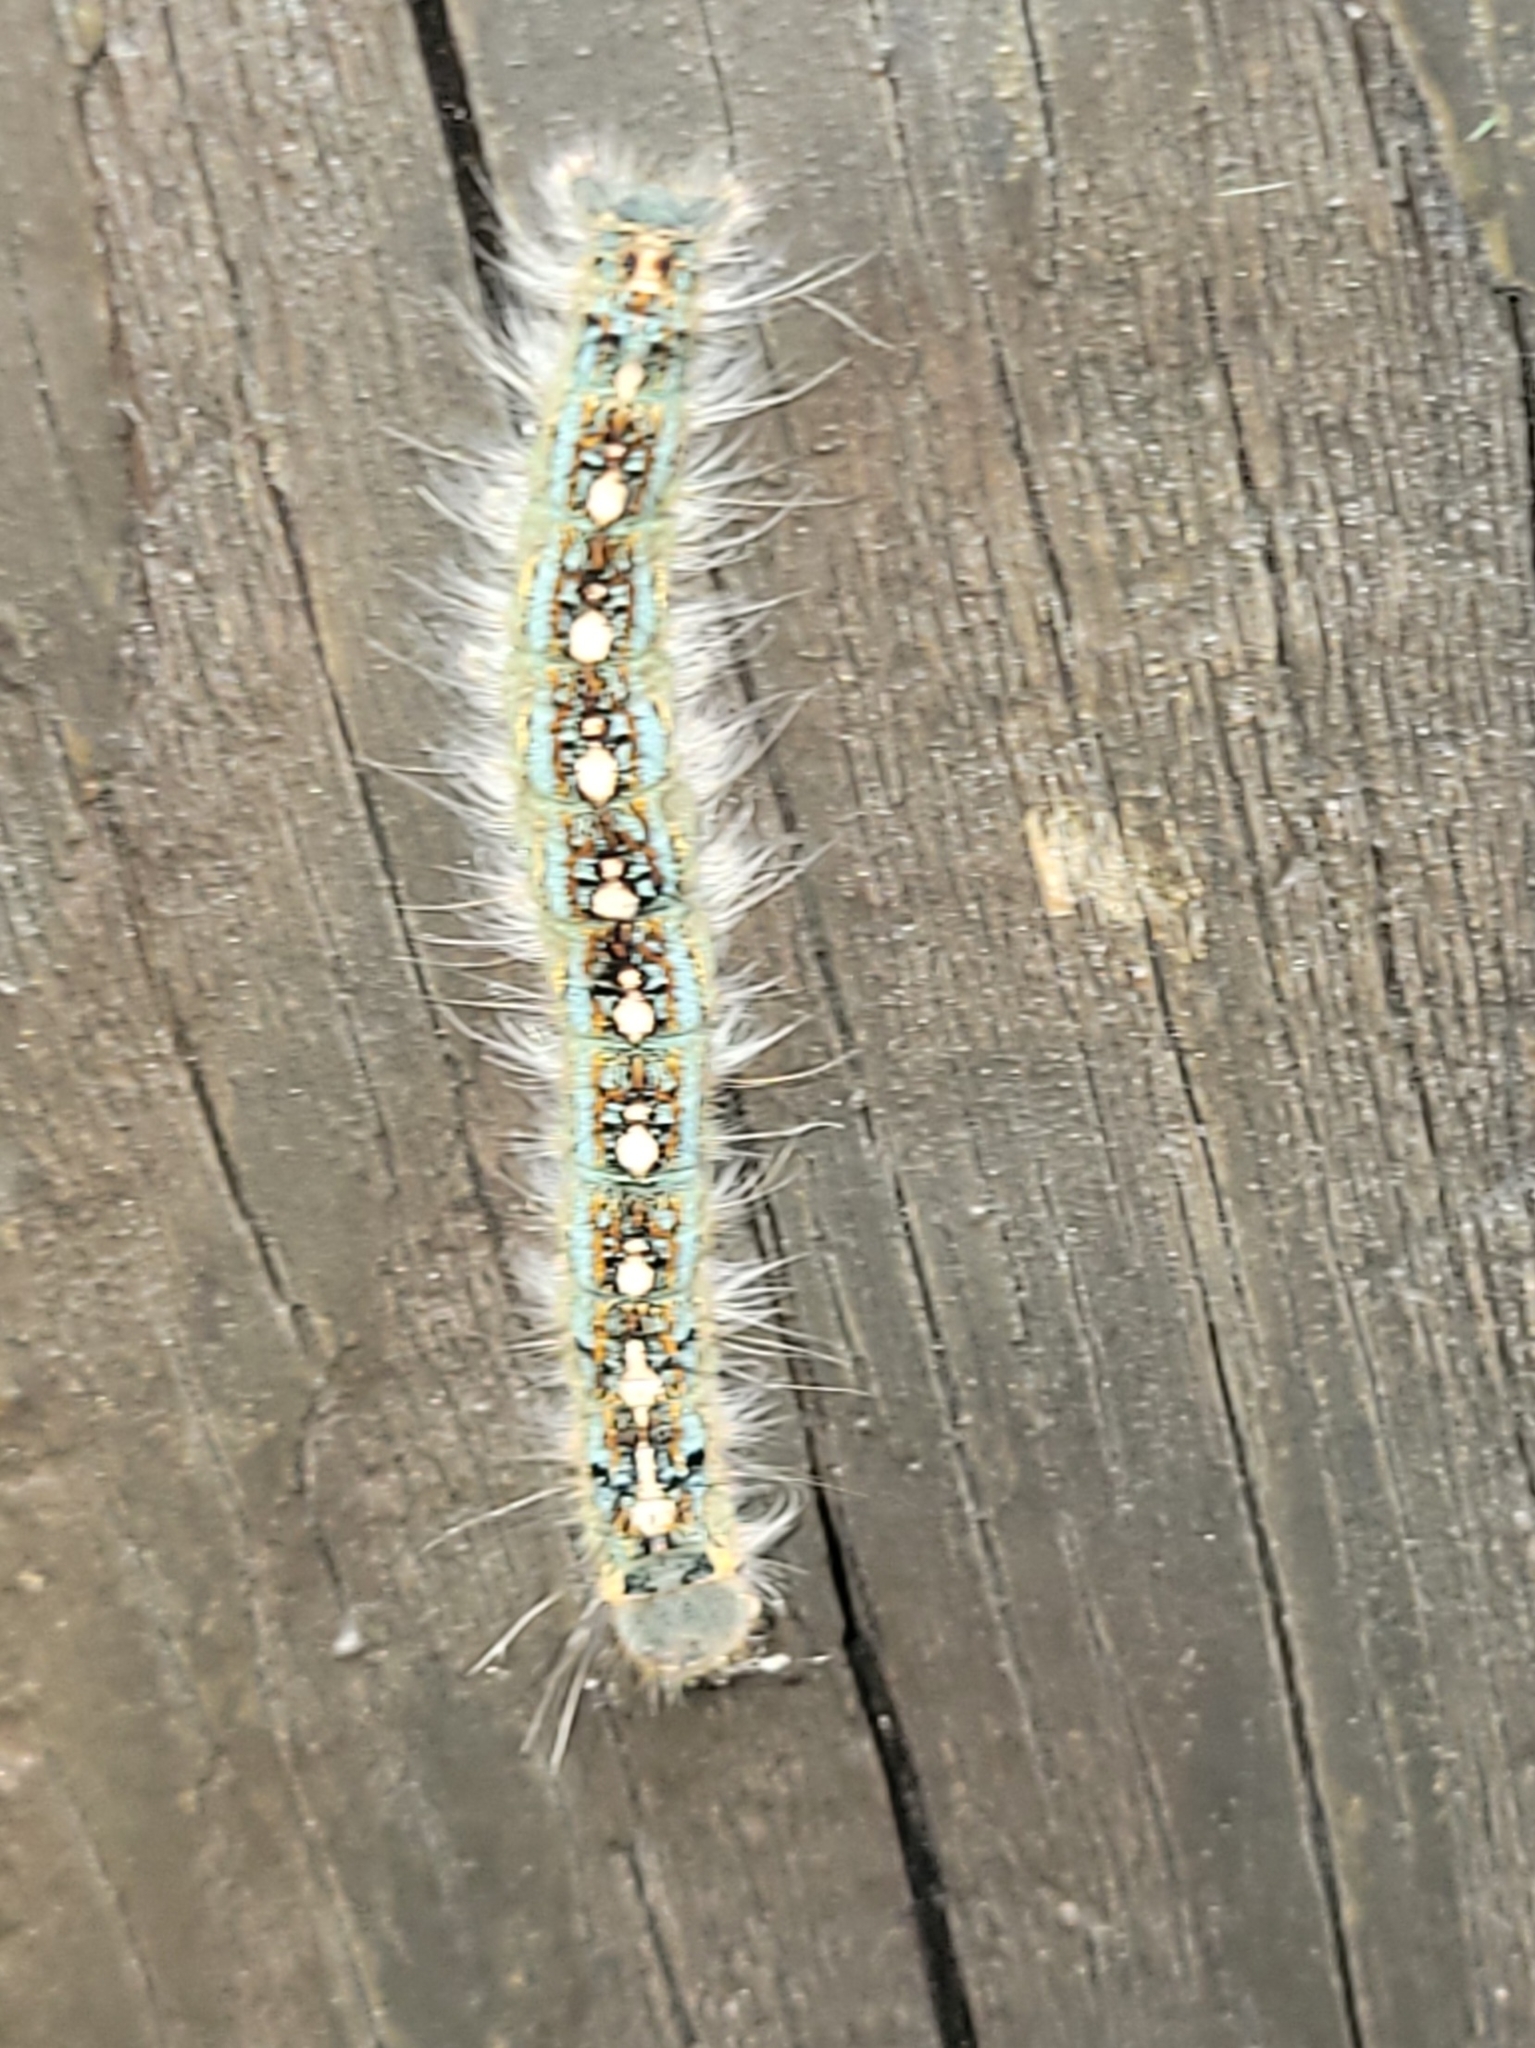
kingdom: Animalia
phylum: Arthropoda
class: Insecta
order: Lepidoptera
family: Lasiocampidae
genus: Malacosoma
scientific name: Malacosoma disstria
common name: Forest tent caterpillar
